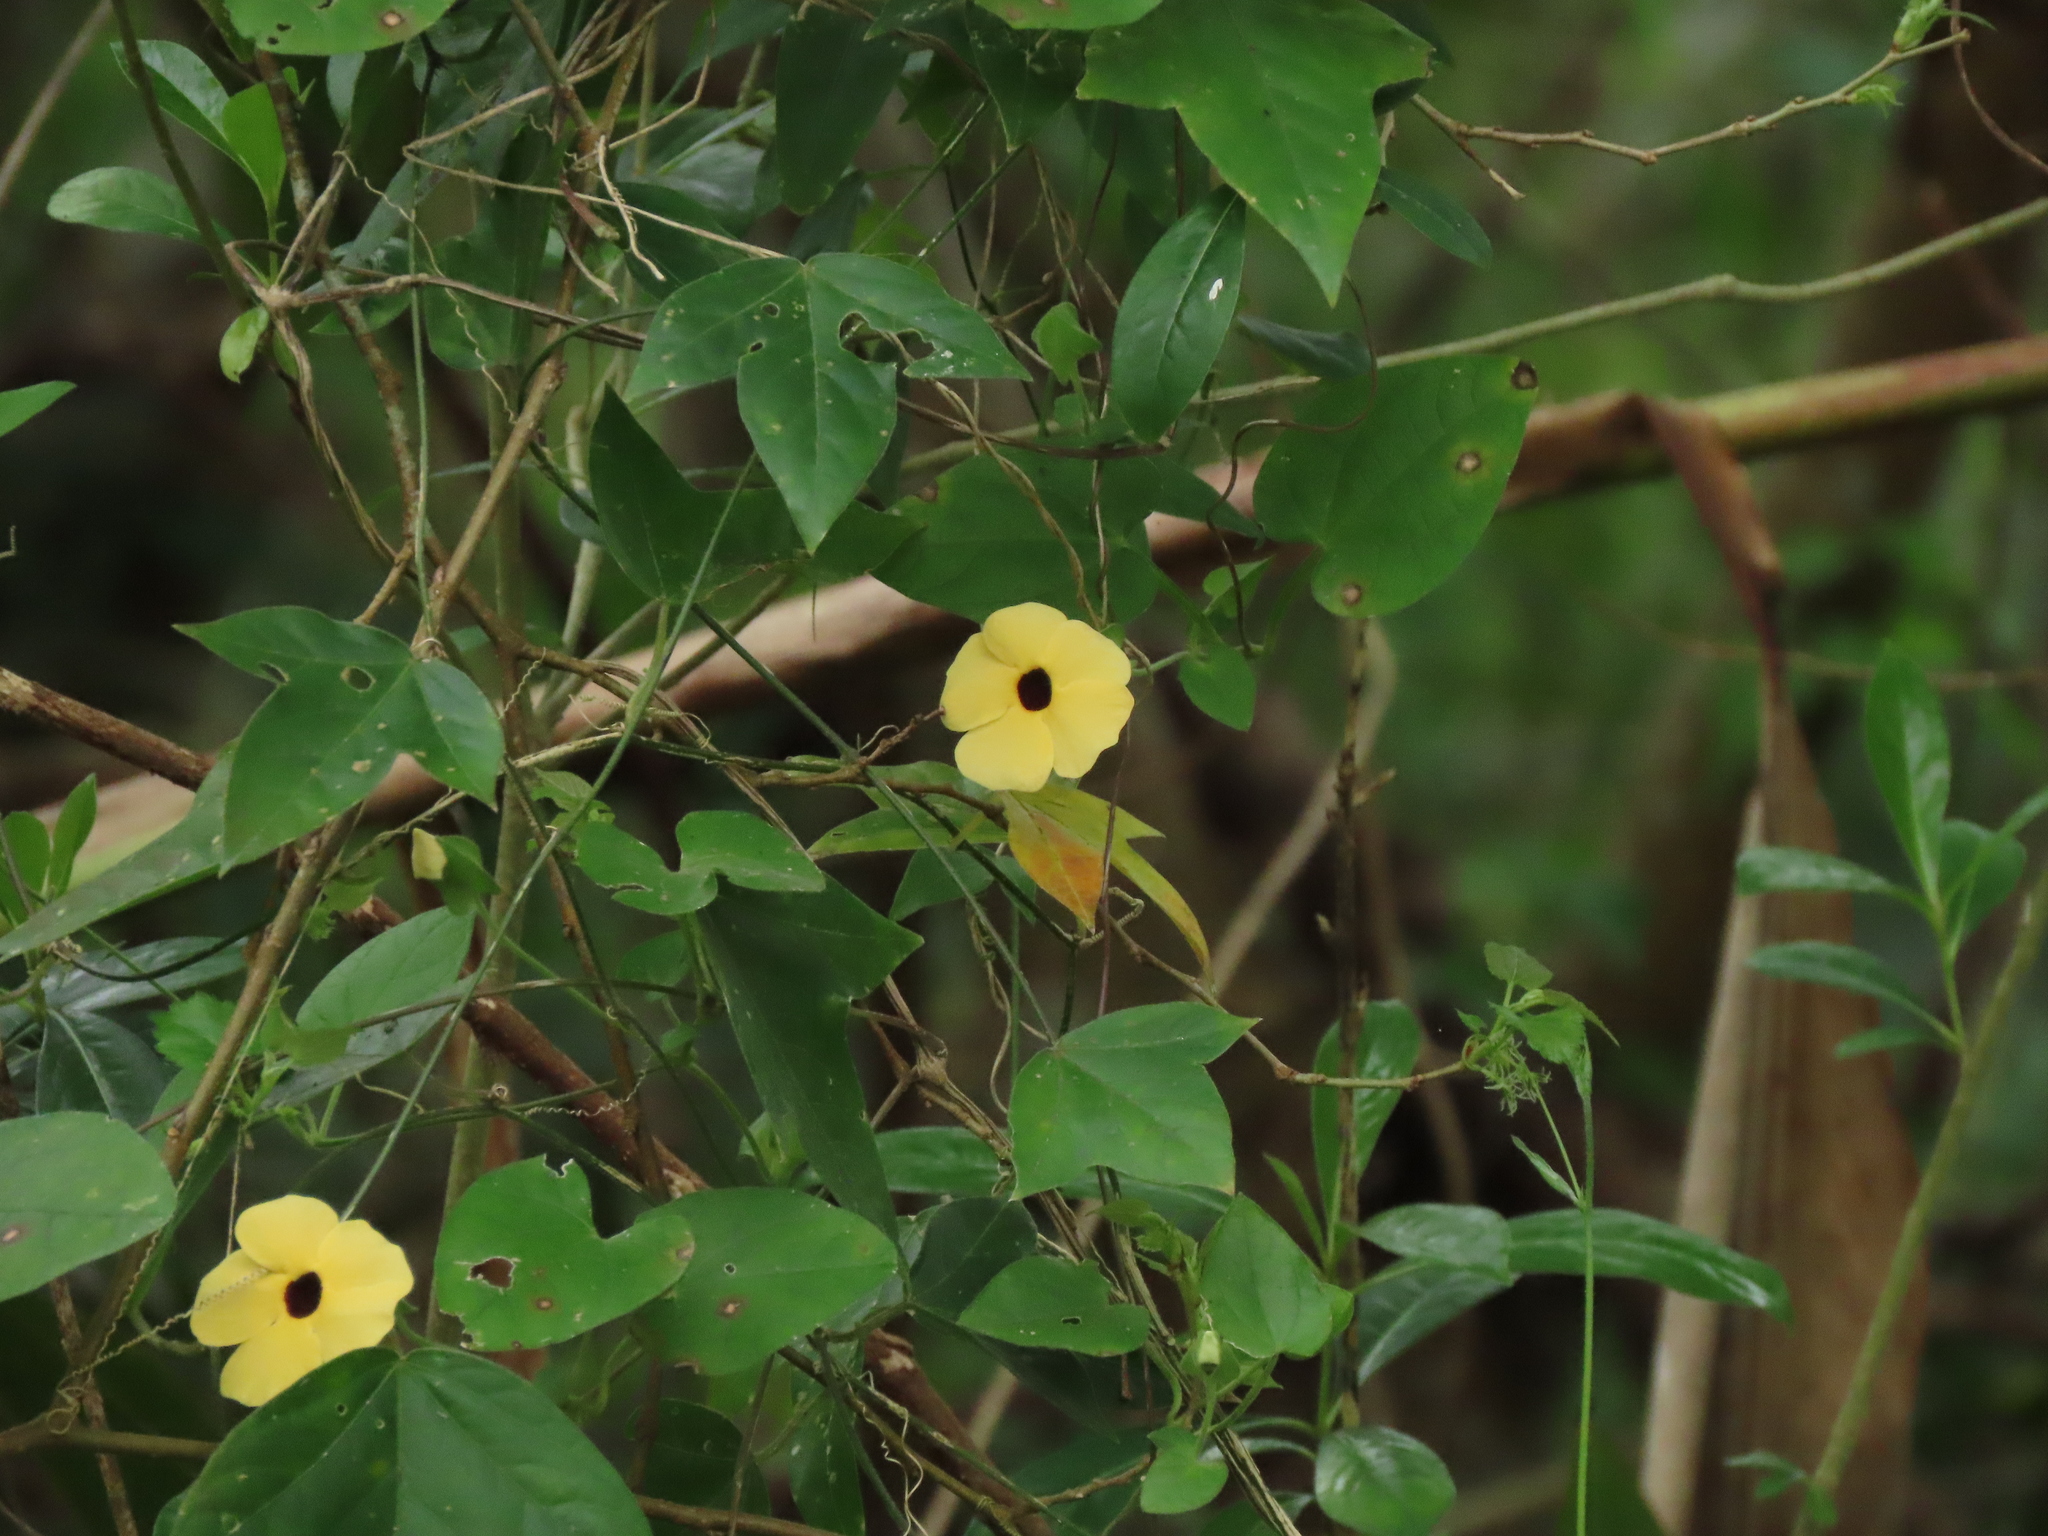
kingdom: Plantae
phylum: Tracheophyta
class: Magnoliopsida
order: Lamiales
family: Acanthaceae
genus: Thunbergia
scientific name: Thunbergia alata
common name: Blackeyed susan vine
